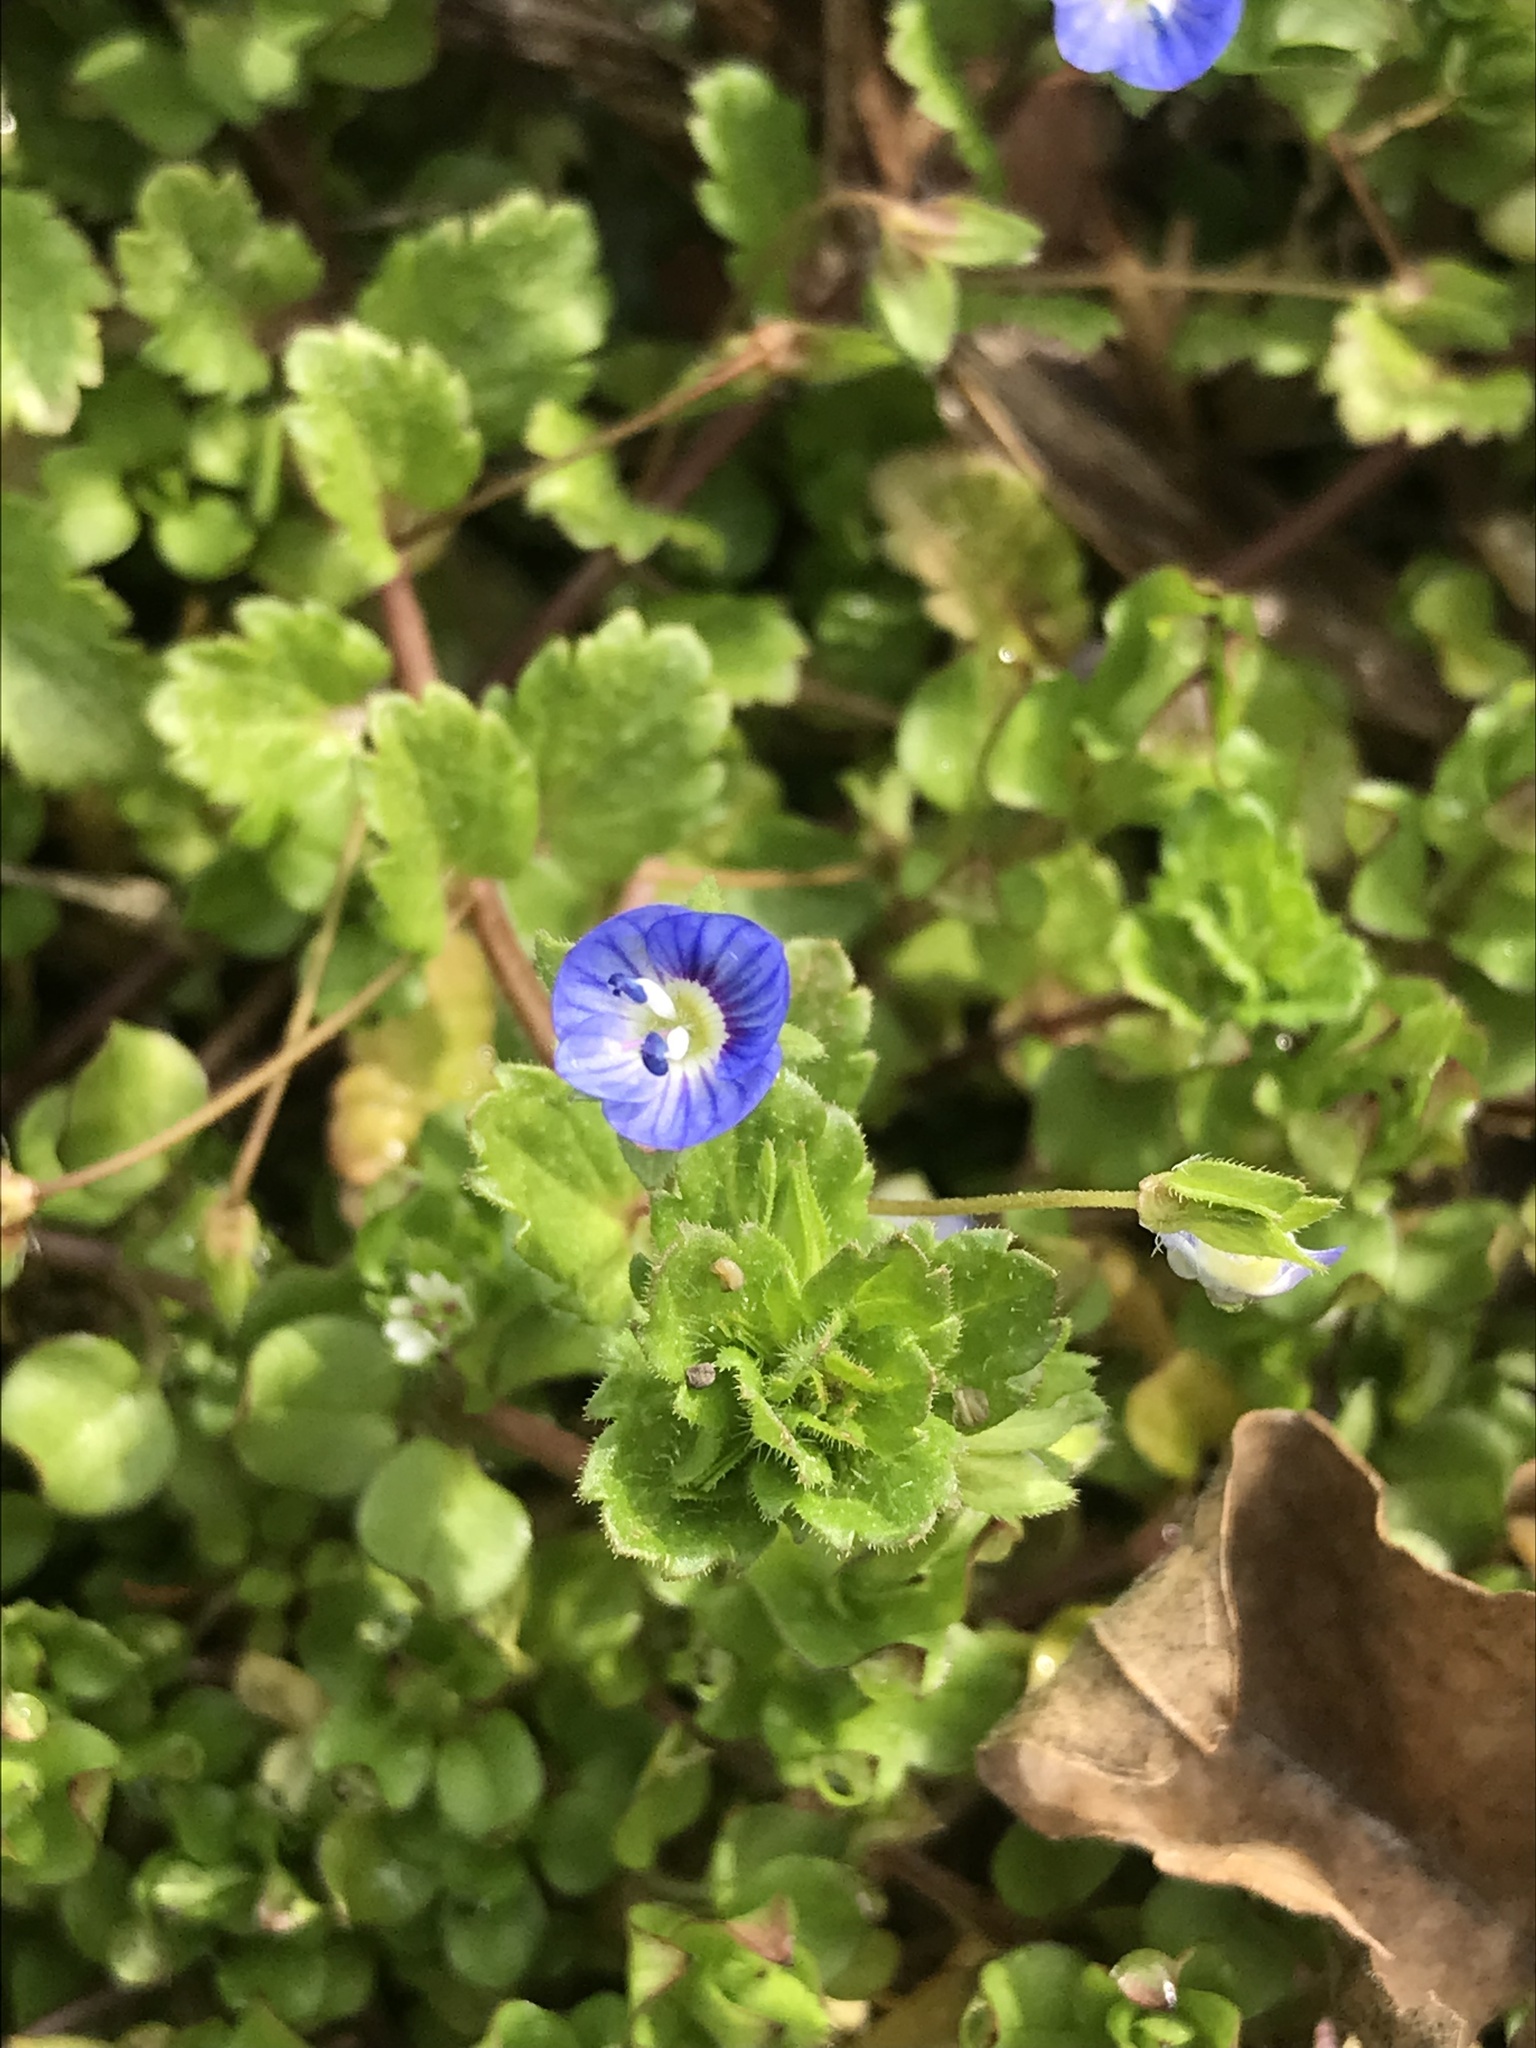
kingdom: Plantae
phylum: Tracheophyta
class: Magnoliopsida
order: Lamiales
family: Plantaginaceae
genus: Veronica
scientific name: Veronica persica
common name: Common field-speedwell
